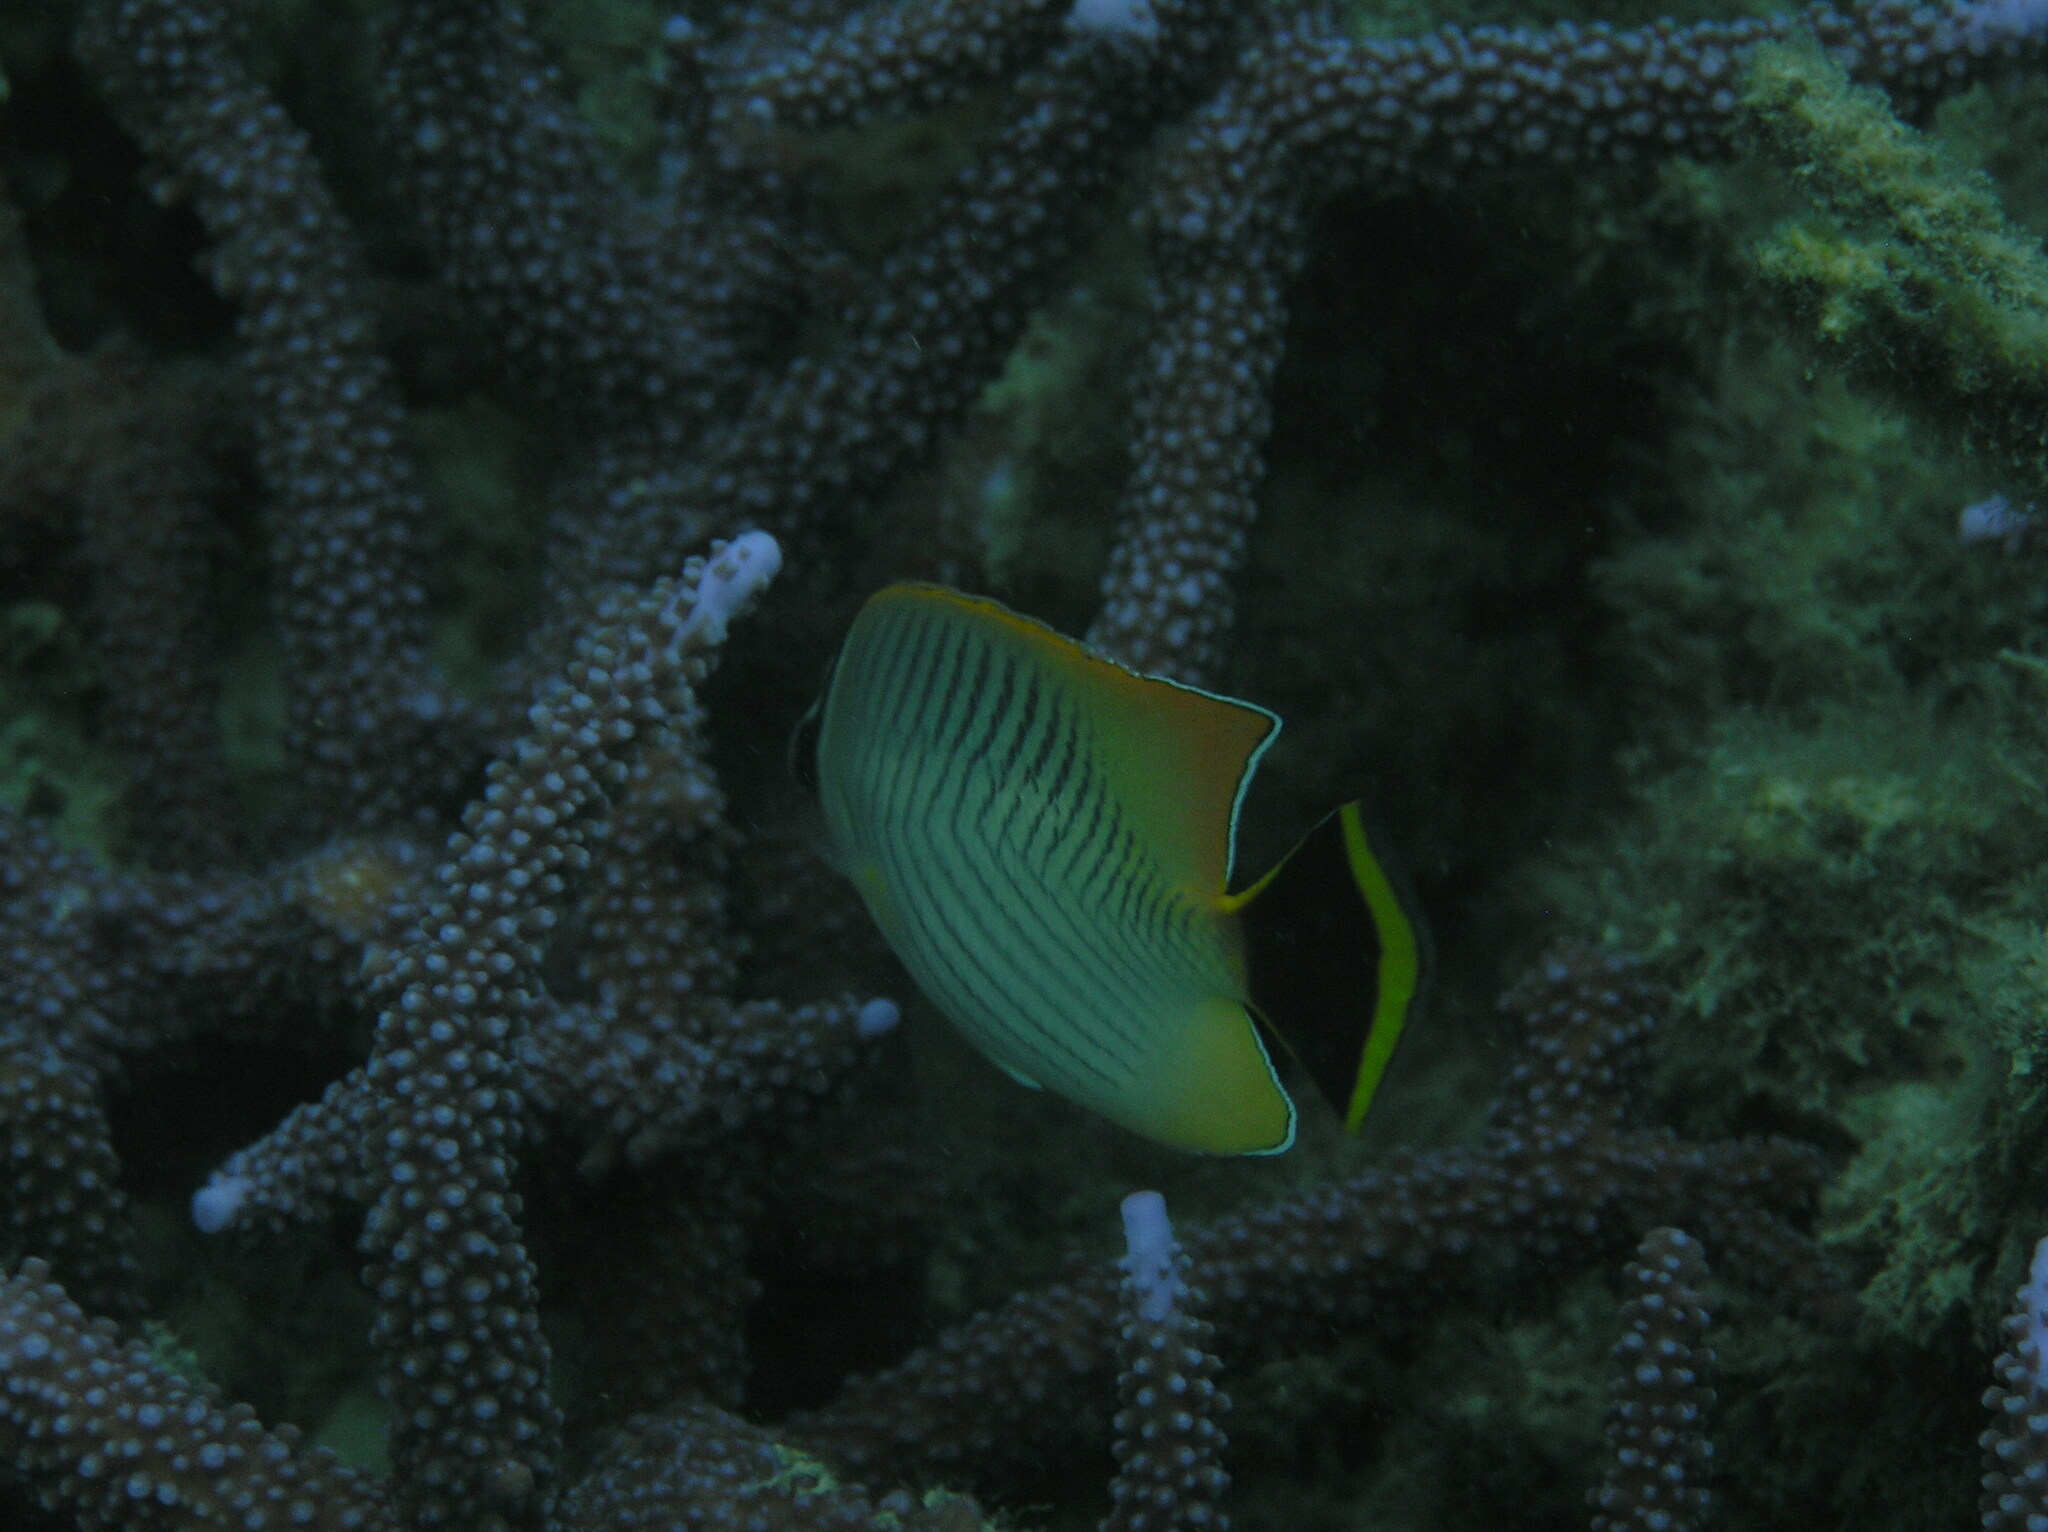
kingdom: Animalia
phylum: Chordata
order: Perciformes
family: Chaetodontidae
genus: Chaetodon
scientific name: Chaetodon trifascialis
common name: Chevroned butterflyfish
